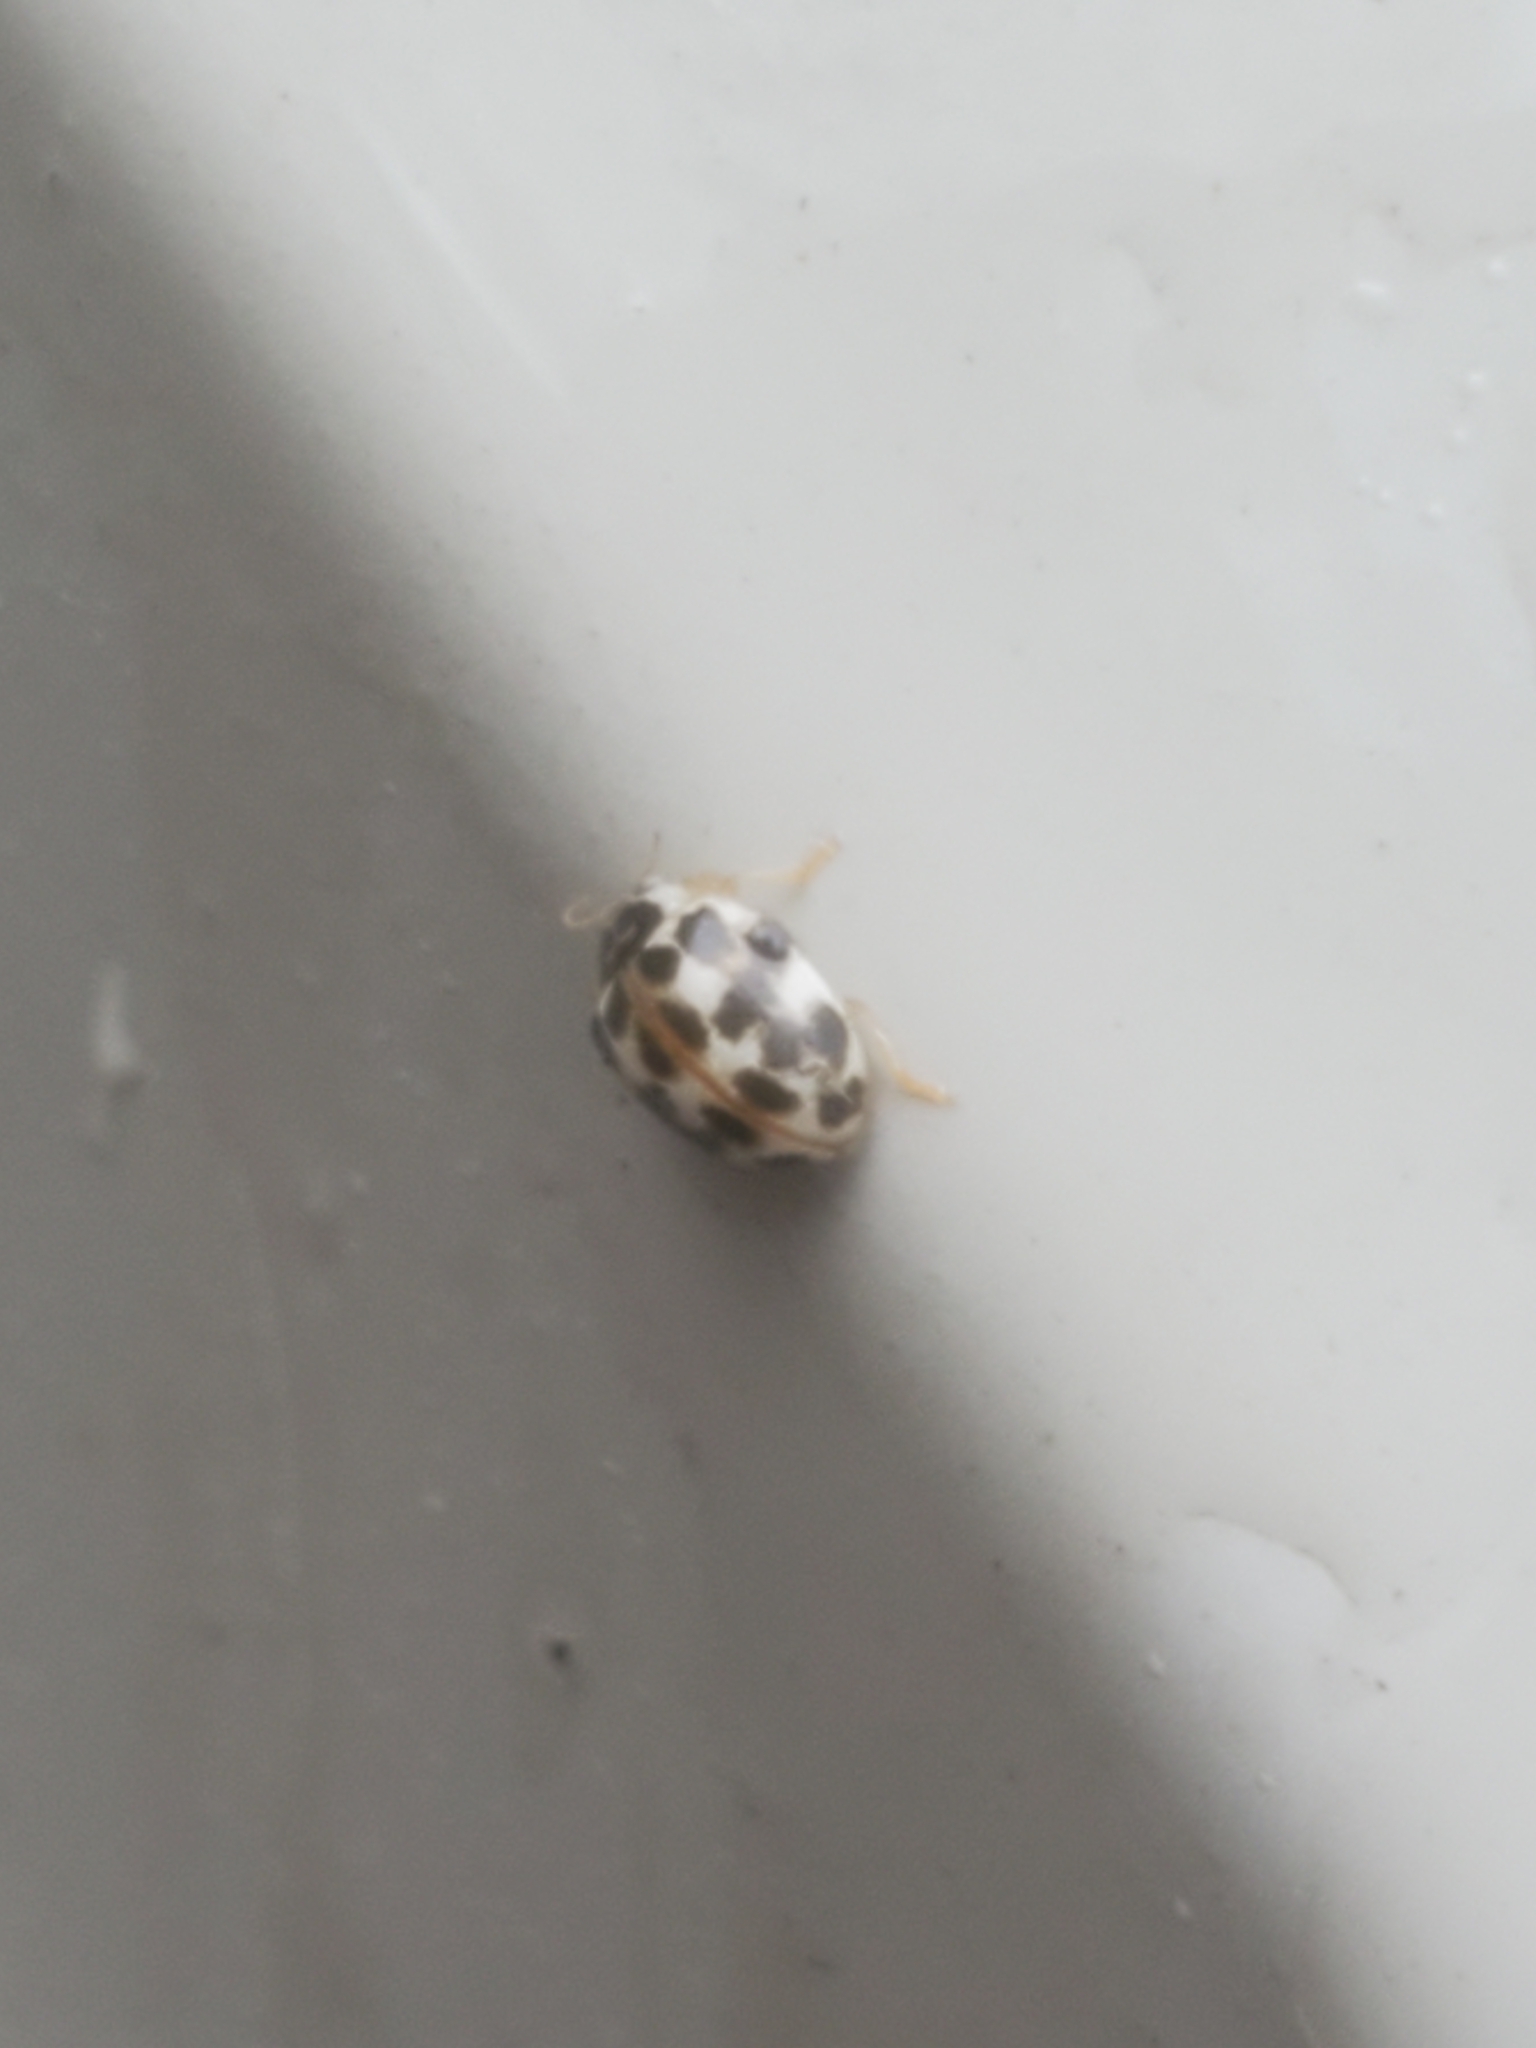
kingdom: Animalia
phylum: Arthropoda
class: Insecta
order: Coleoptera
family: Coccinellidae
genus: Psyllobora
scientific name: Psyllobora vigintimaculata
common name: Ladybird beetle
